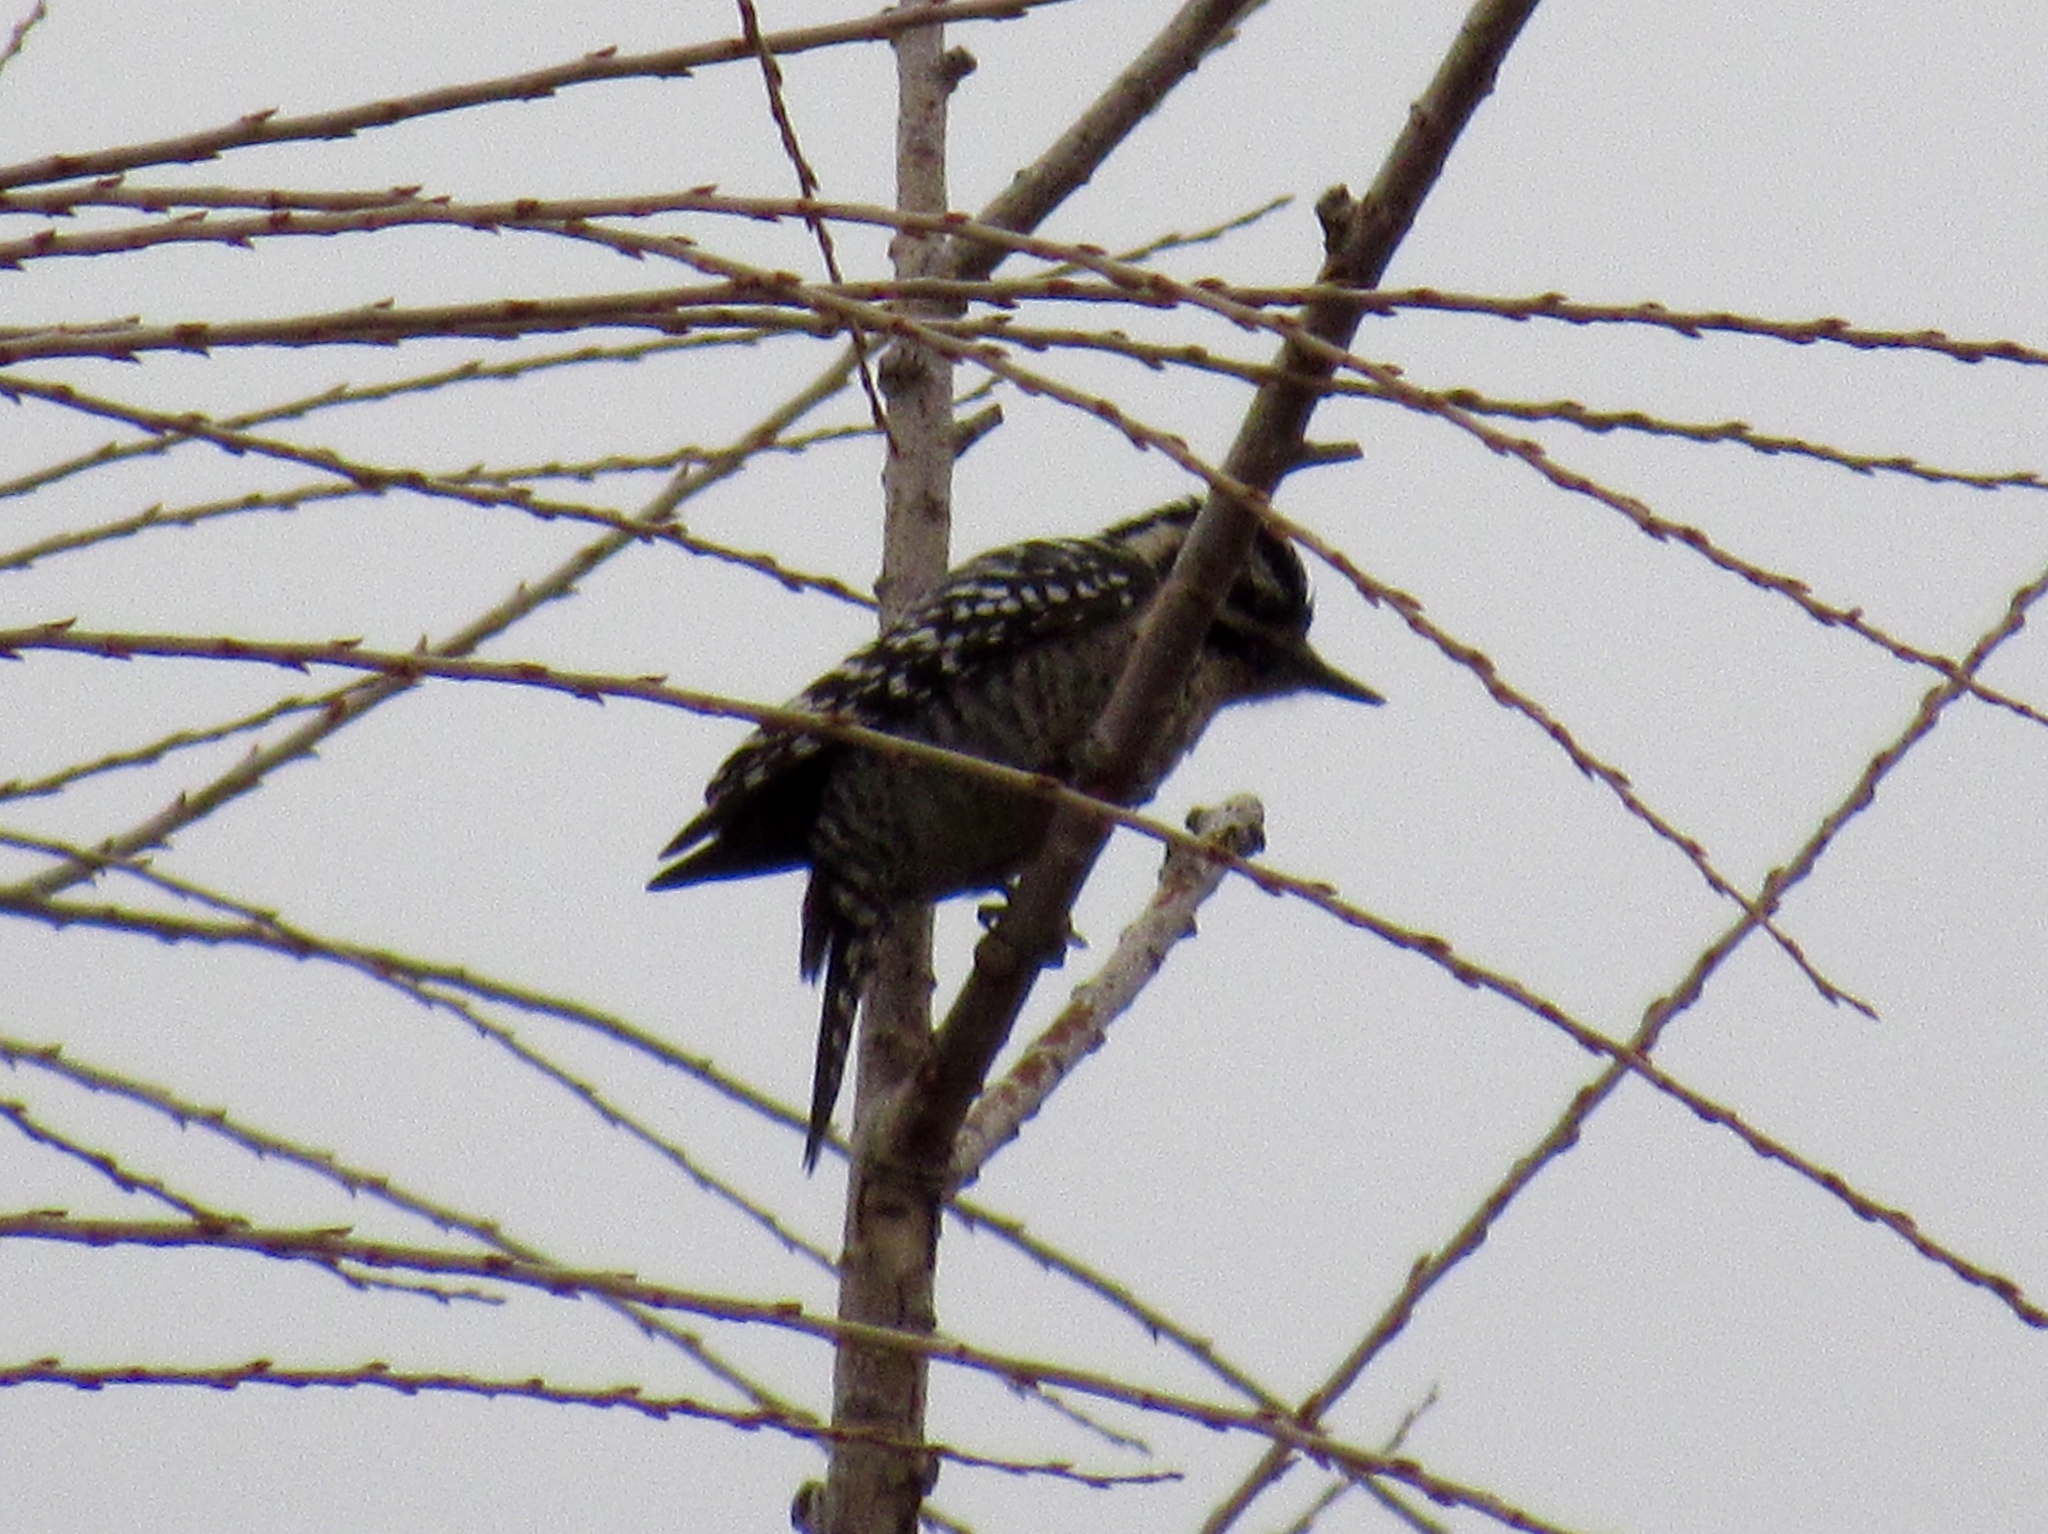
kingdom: Animalia
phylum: Chordata
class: Aves
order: Piciformes
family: Picidae
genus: Dryobates
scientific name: Dryobates scalaris
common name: Ladder-backed woodpecker
